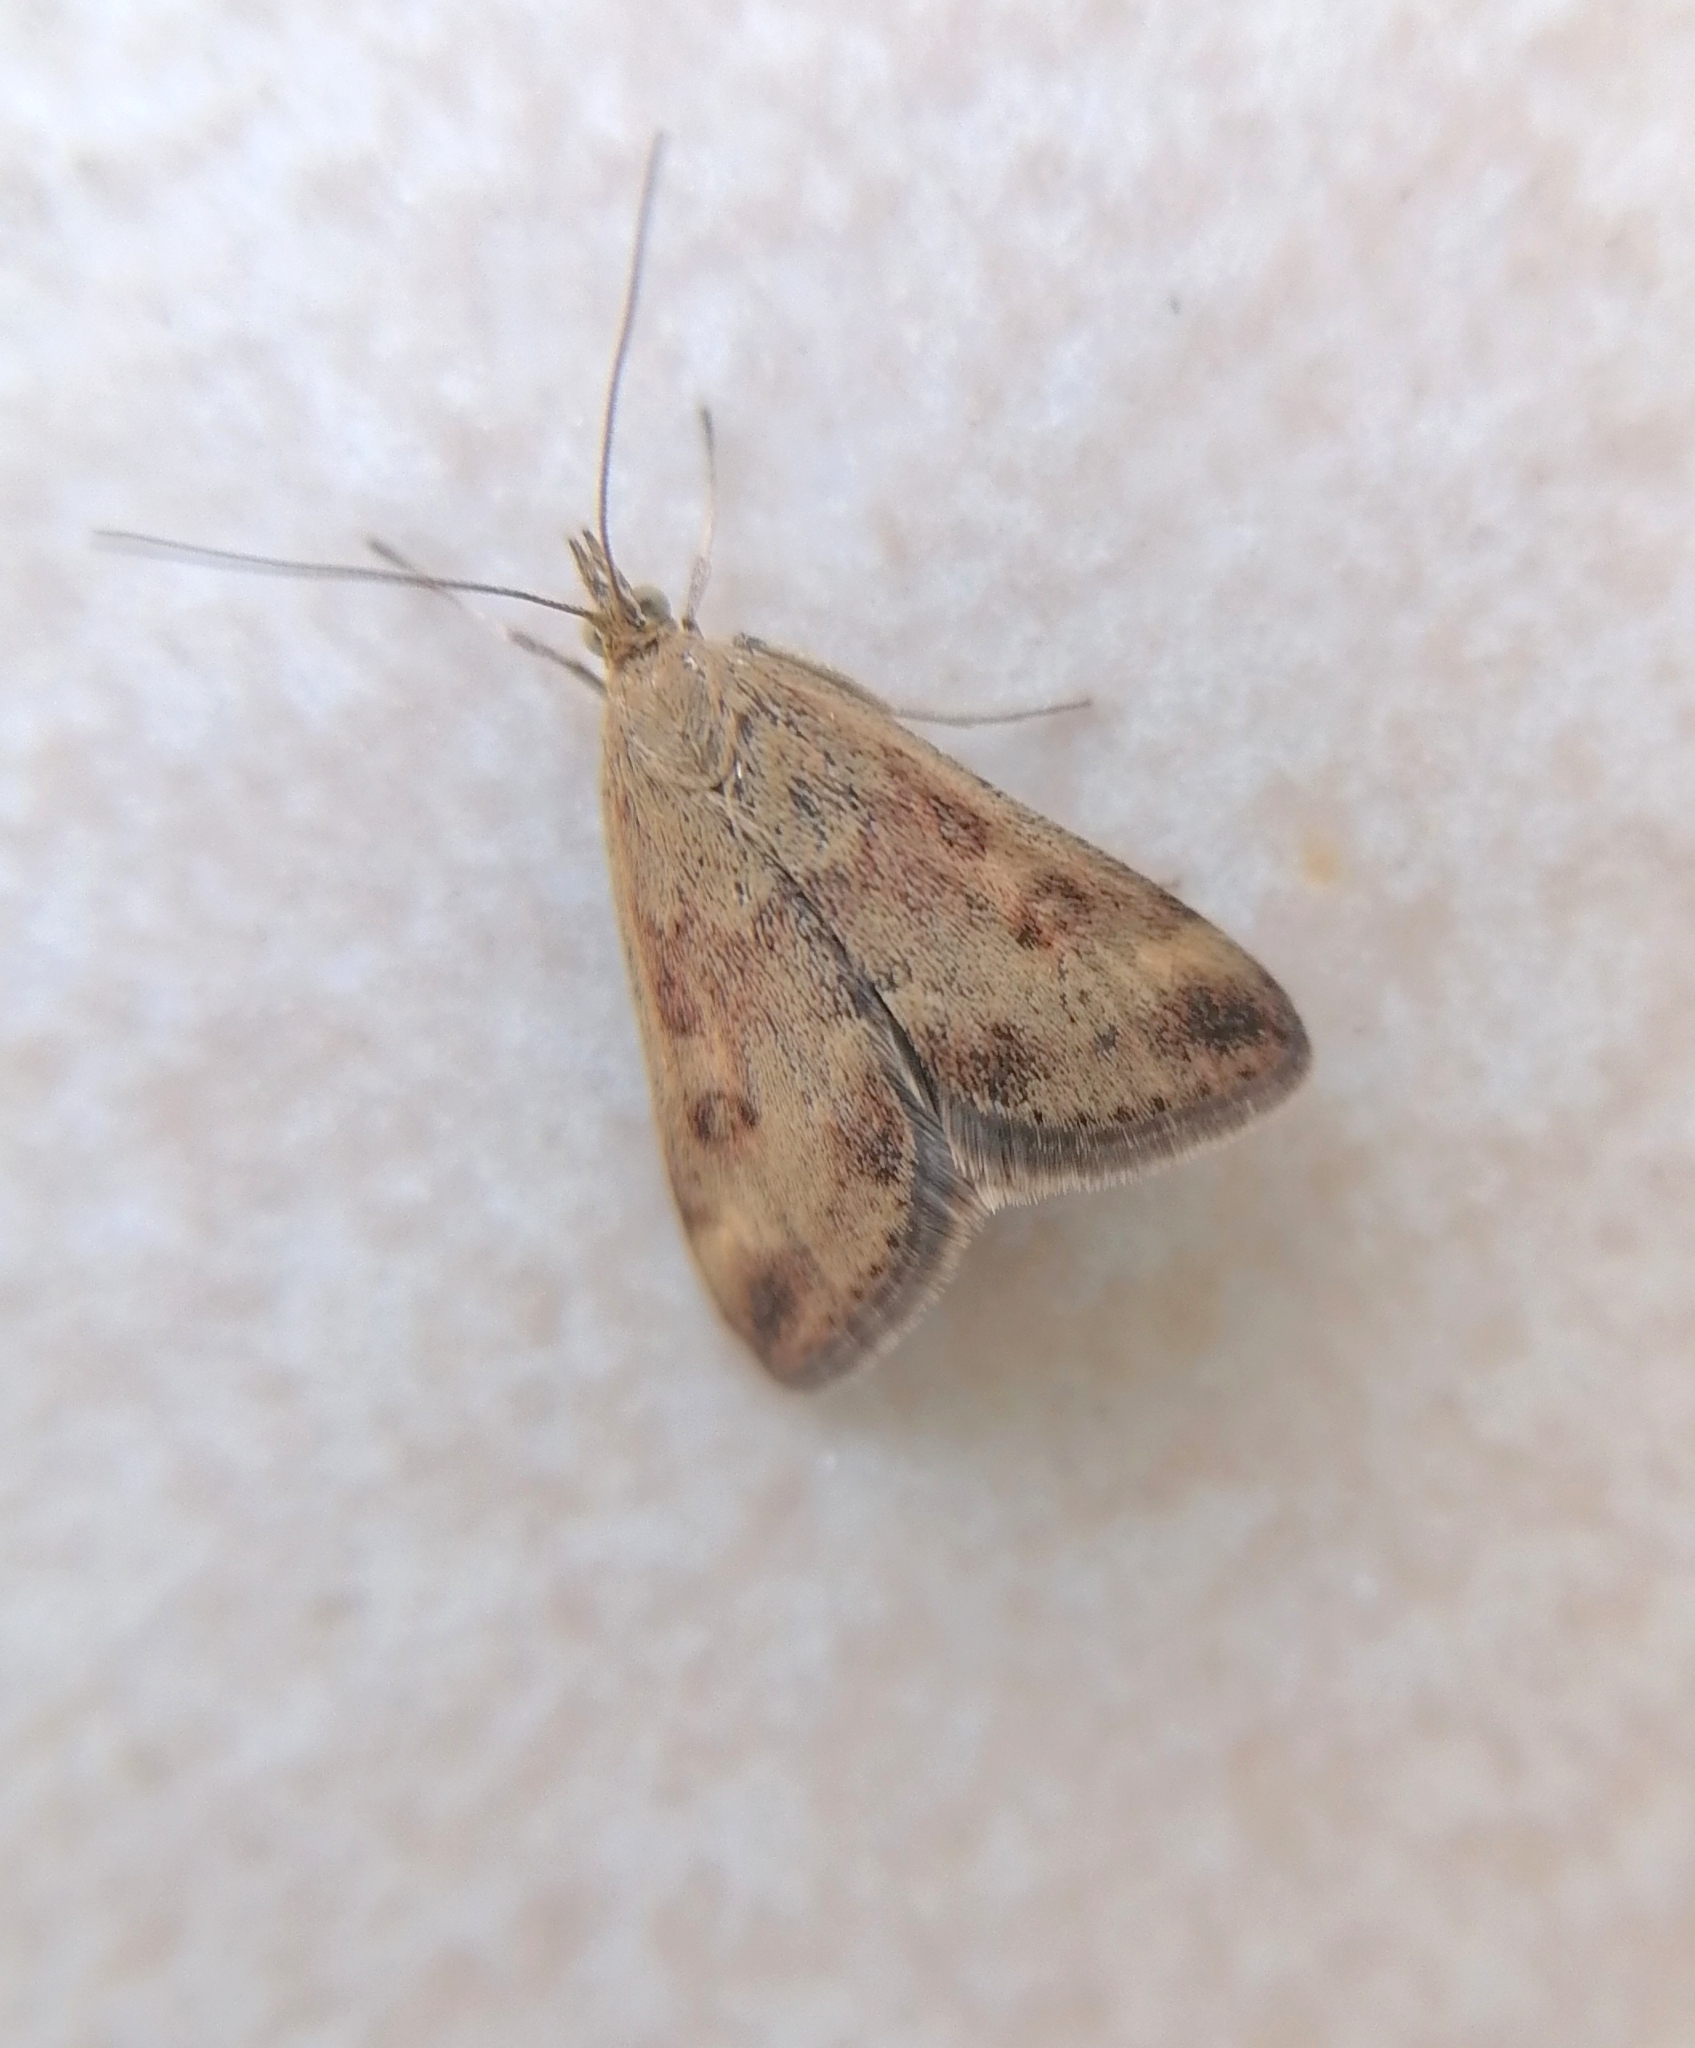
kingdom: Animalia
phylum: Arthropoda
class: Insecta
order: Lepidoptera
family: Crambidae
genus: Pyrausta
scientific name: Pyrausta despicata
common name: Straw-barred pearl
